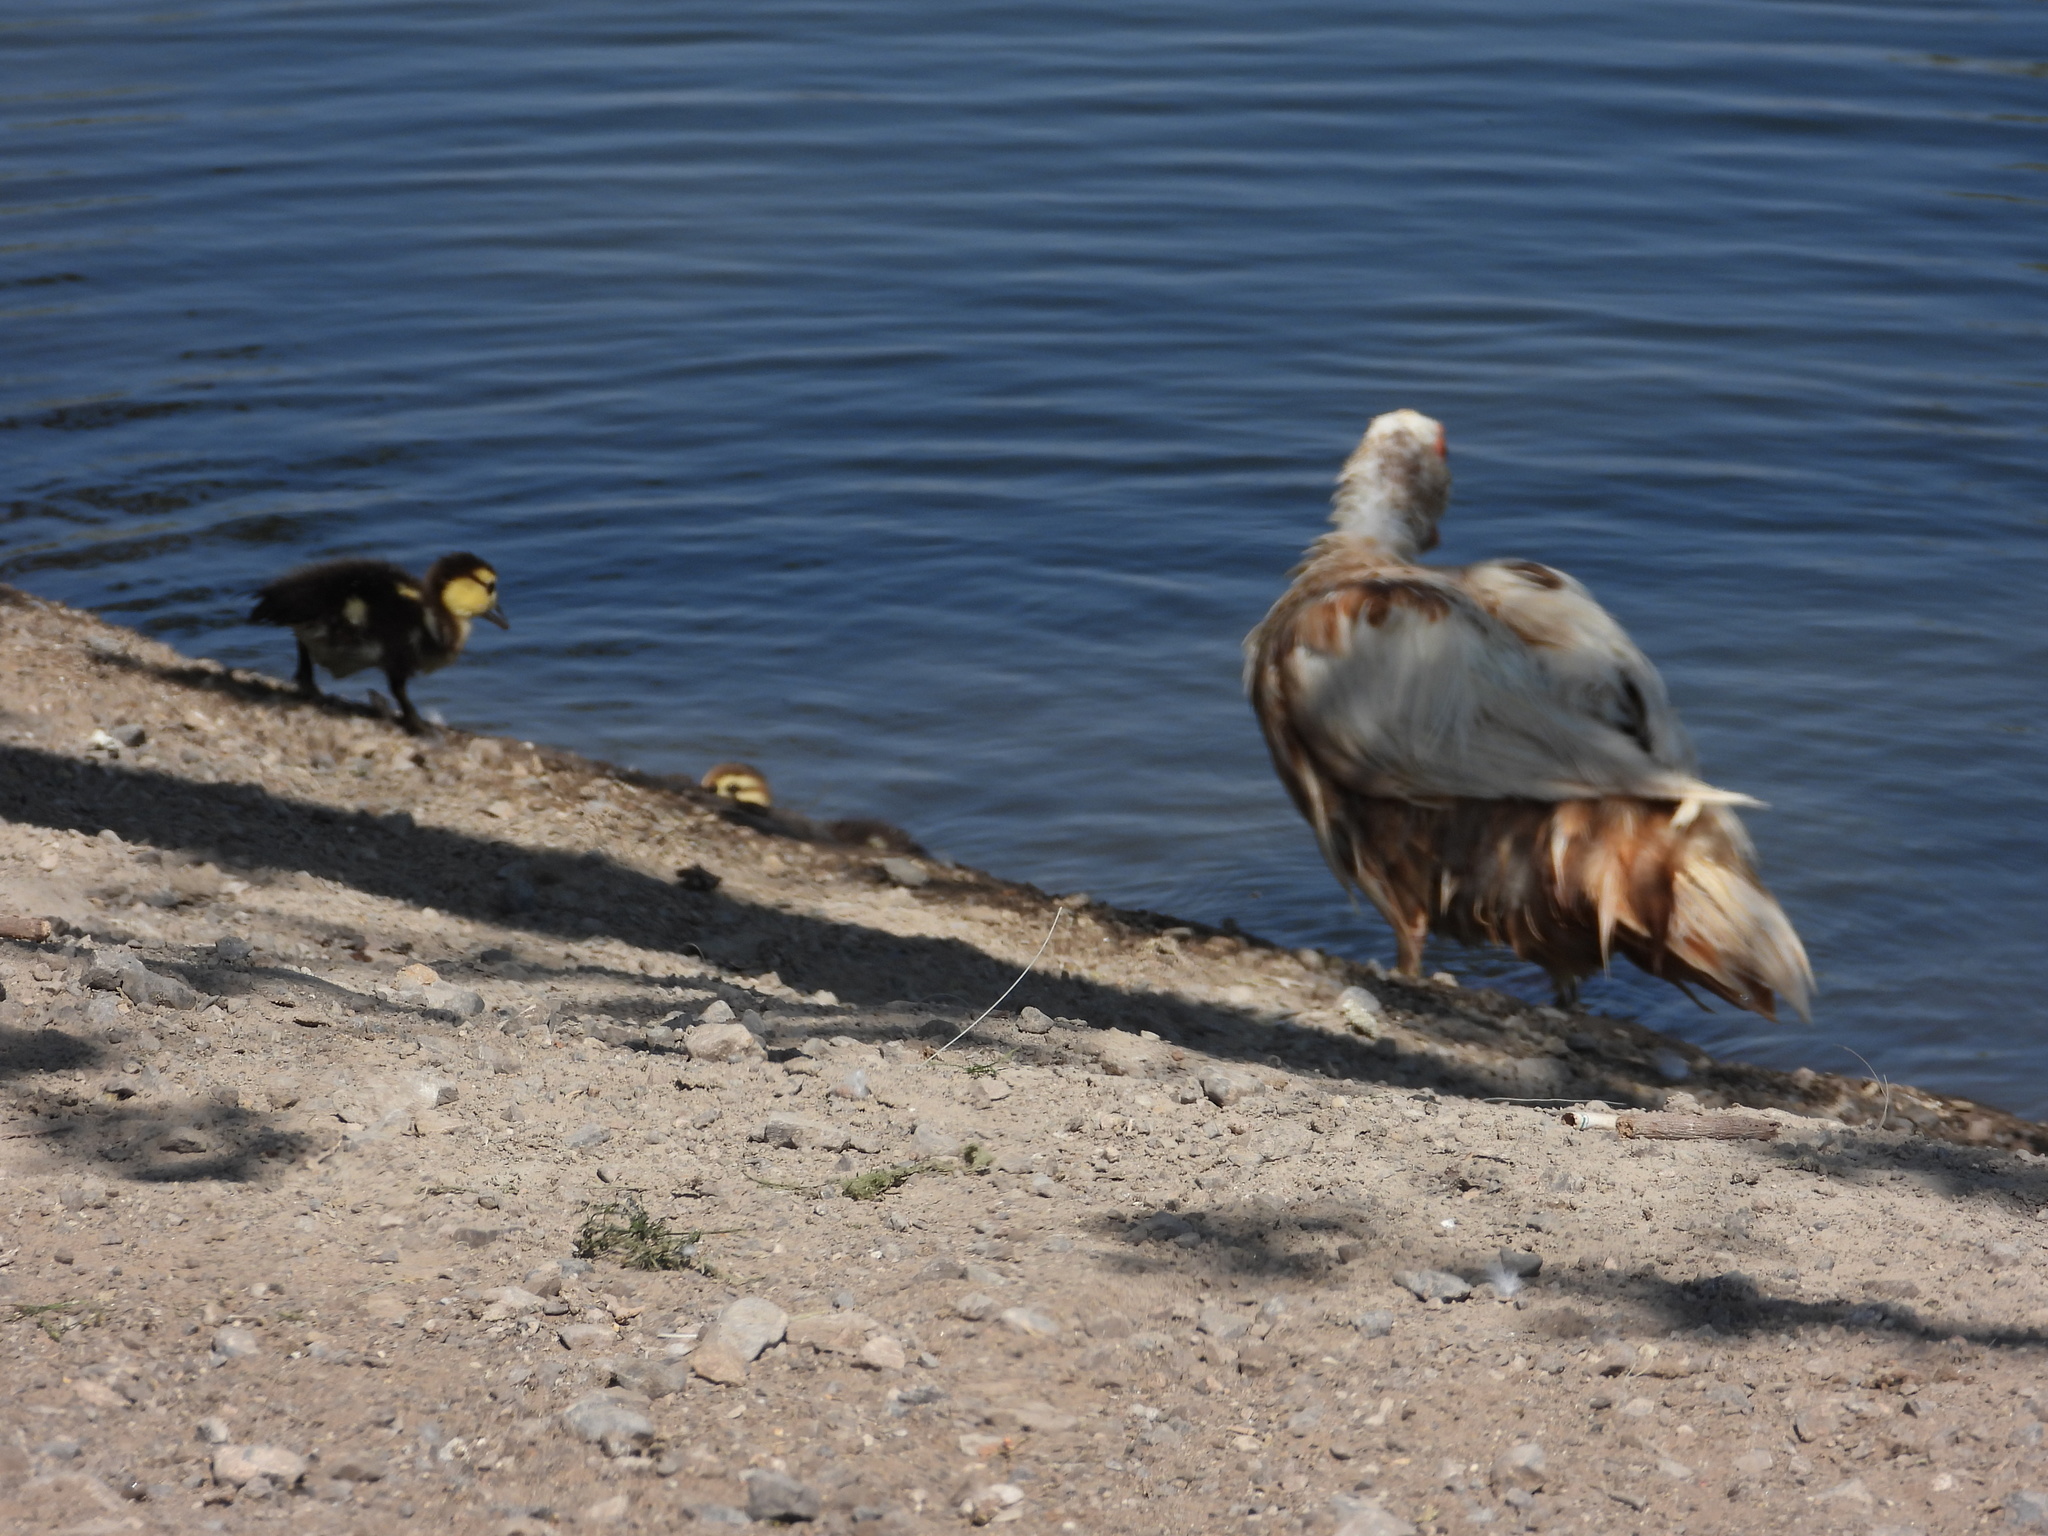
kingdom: Animalia
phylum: Chordata
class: Aves
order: Anseriformes
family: Anatidae
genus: Cairina
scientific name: Cairina moschata
